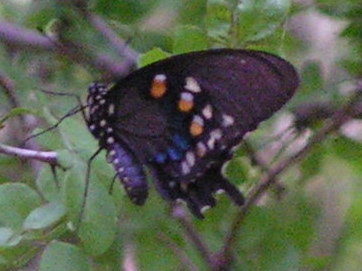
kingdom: Animalia
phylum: Arthropoda
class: Insecta
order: Lepidoptera
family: Papilionidae
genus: Battus
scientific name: Battus philenor
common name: Pipevine swallowtail
